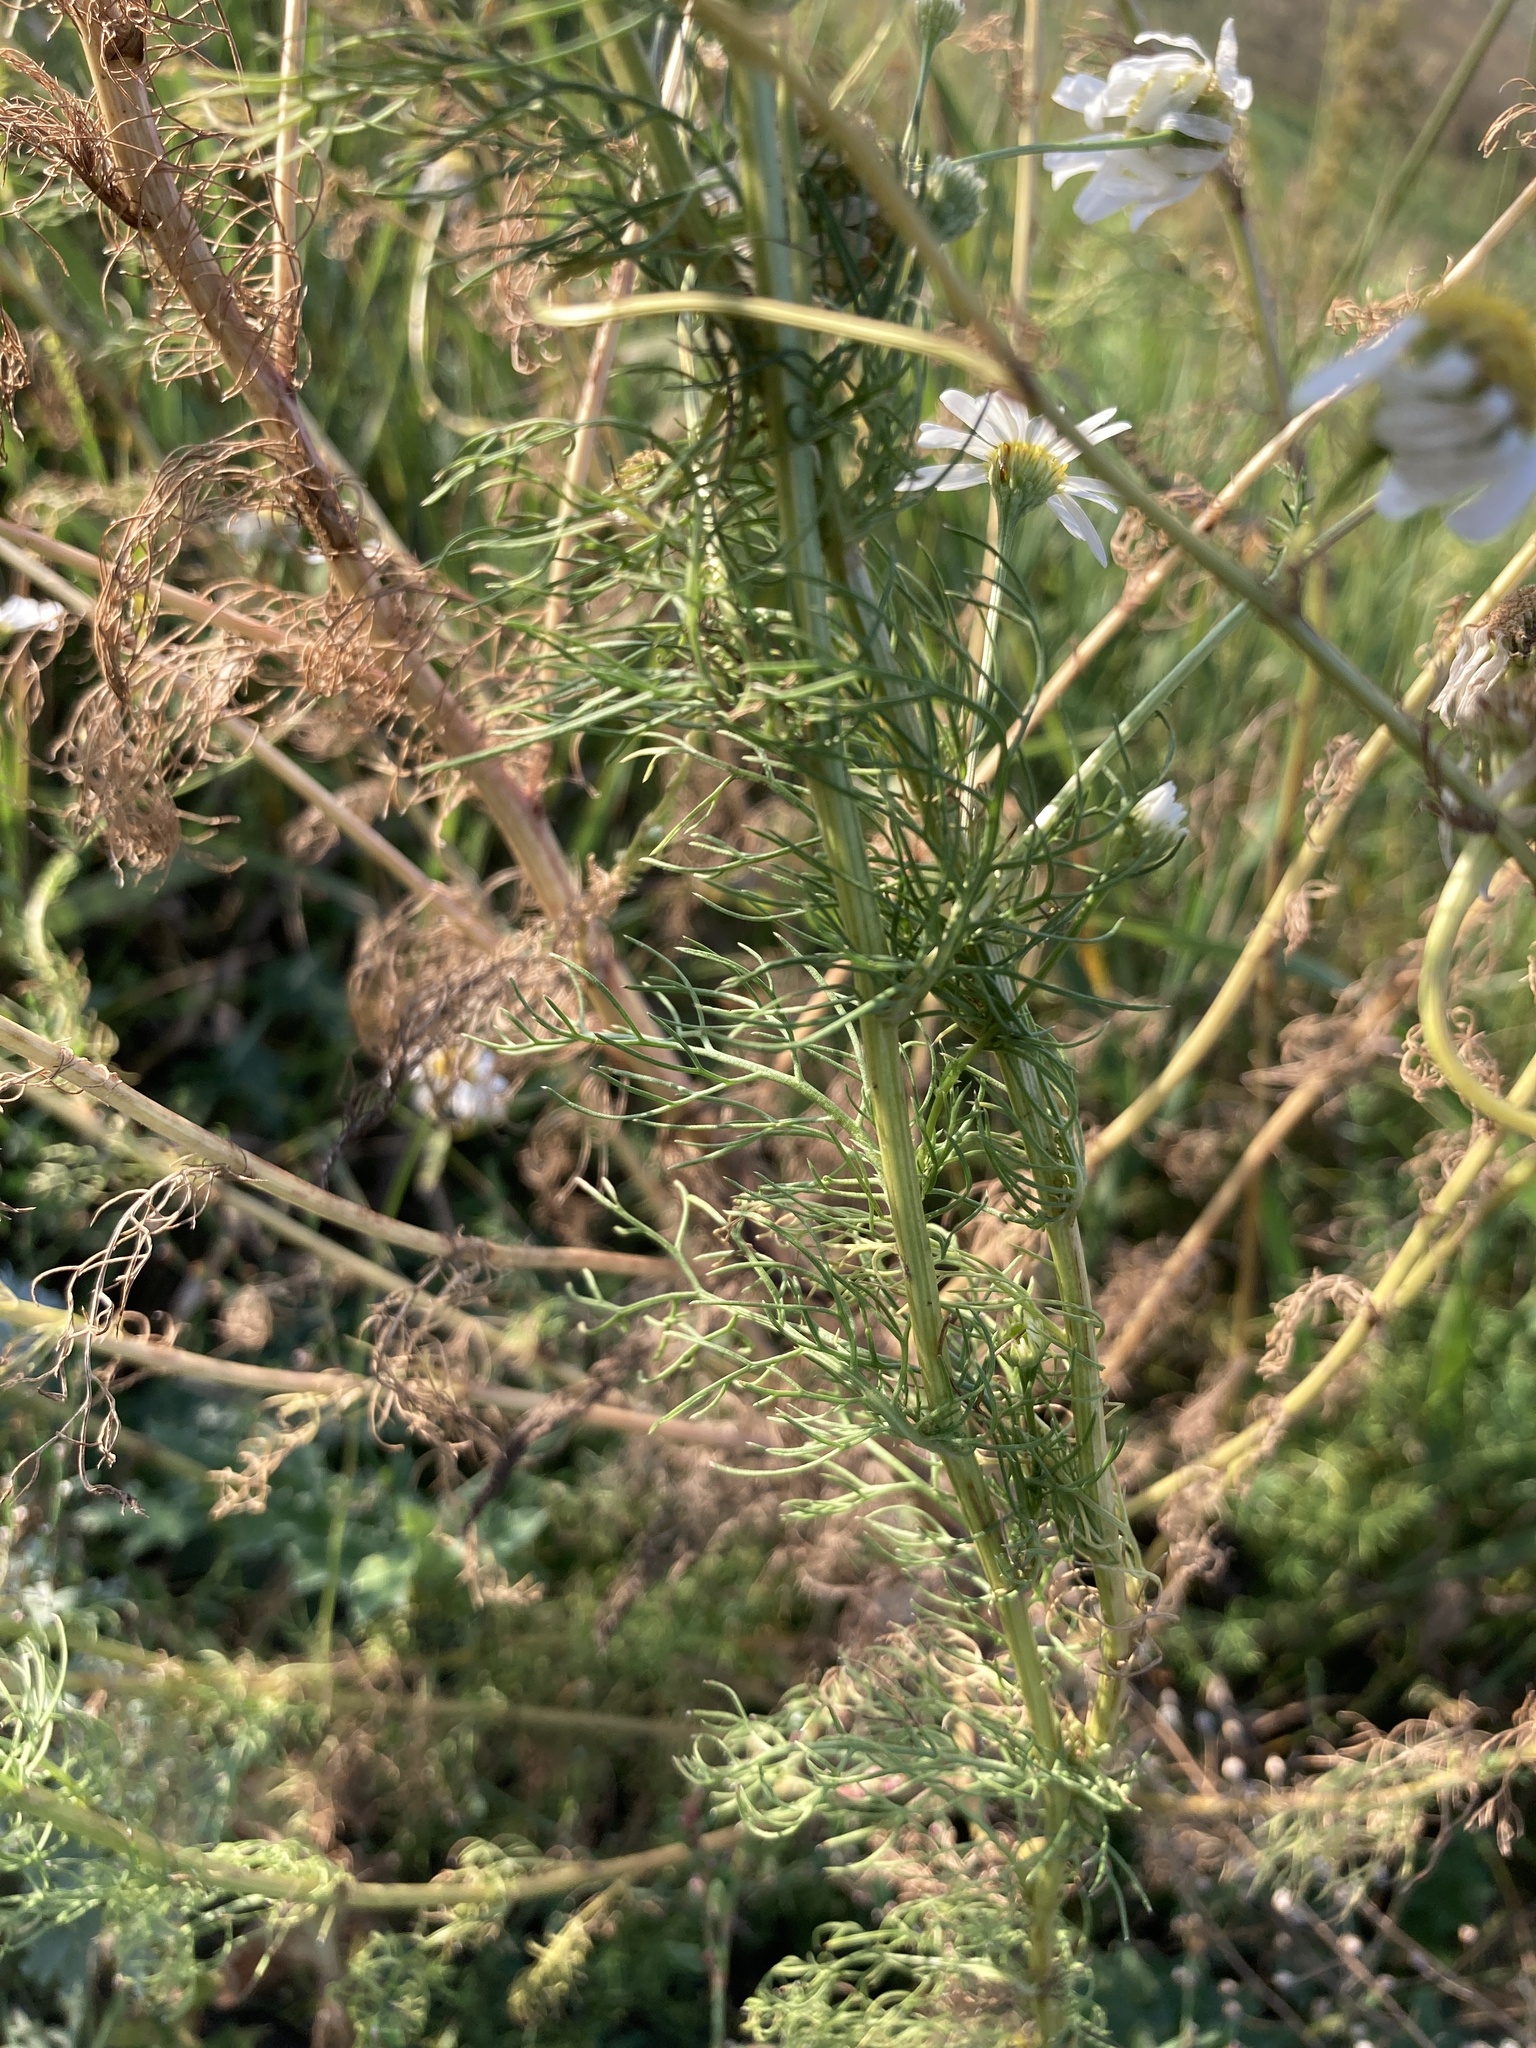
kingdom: Plantae
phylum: Tracheophyta
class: Magnoliopsida
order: Asterales
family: Asteraceae
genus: Tripleurospermum
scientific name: Tripleurospermum inodorum
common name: Scentless mayweed
